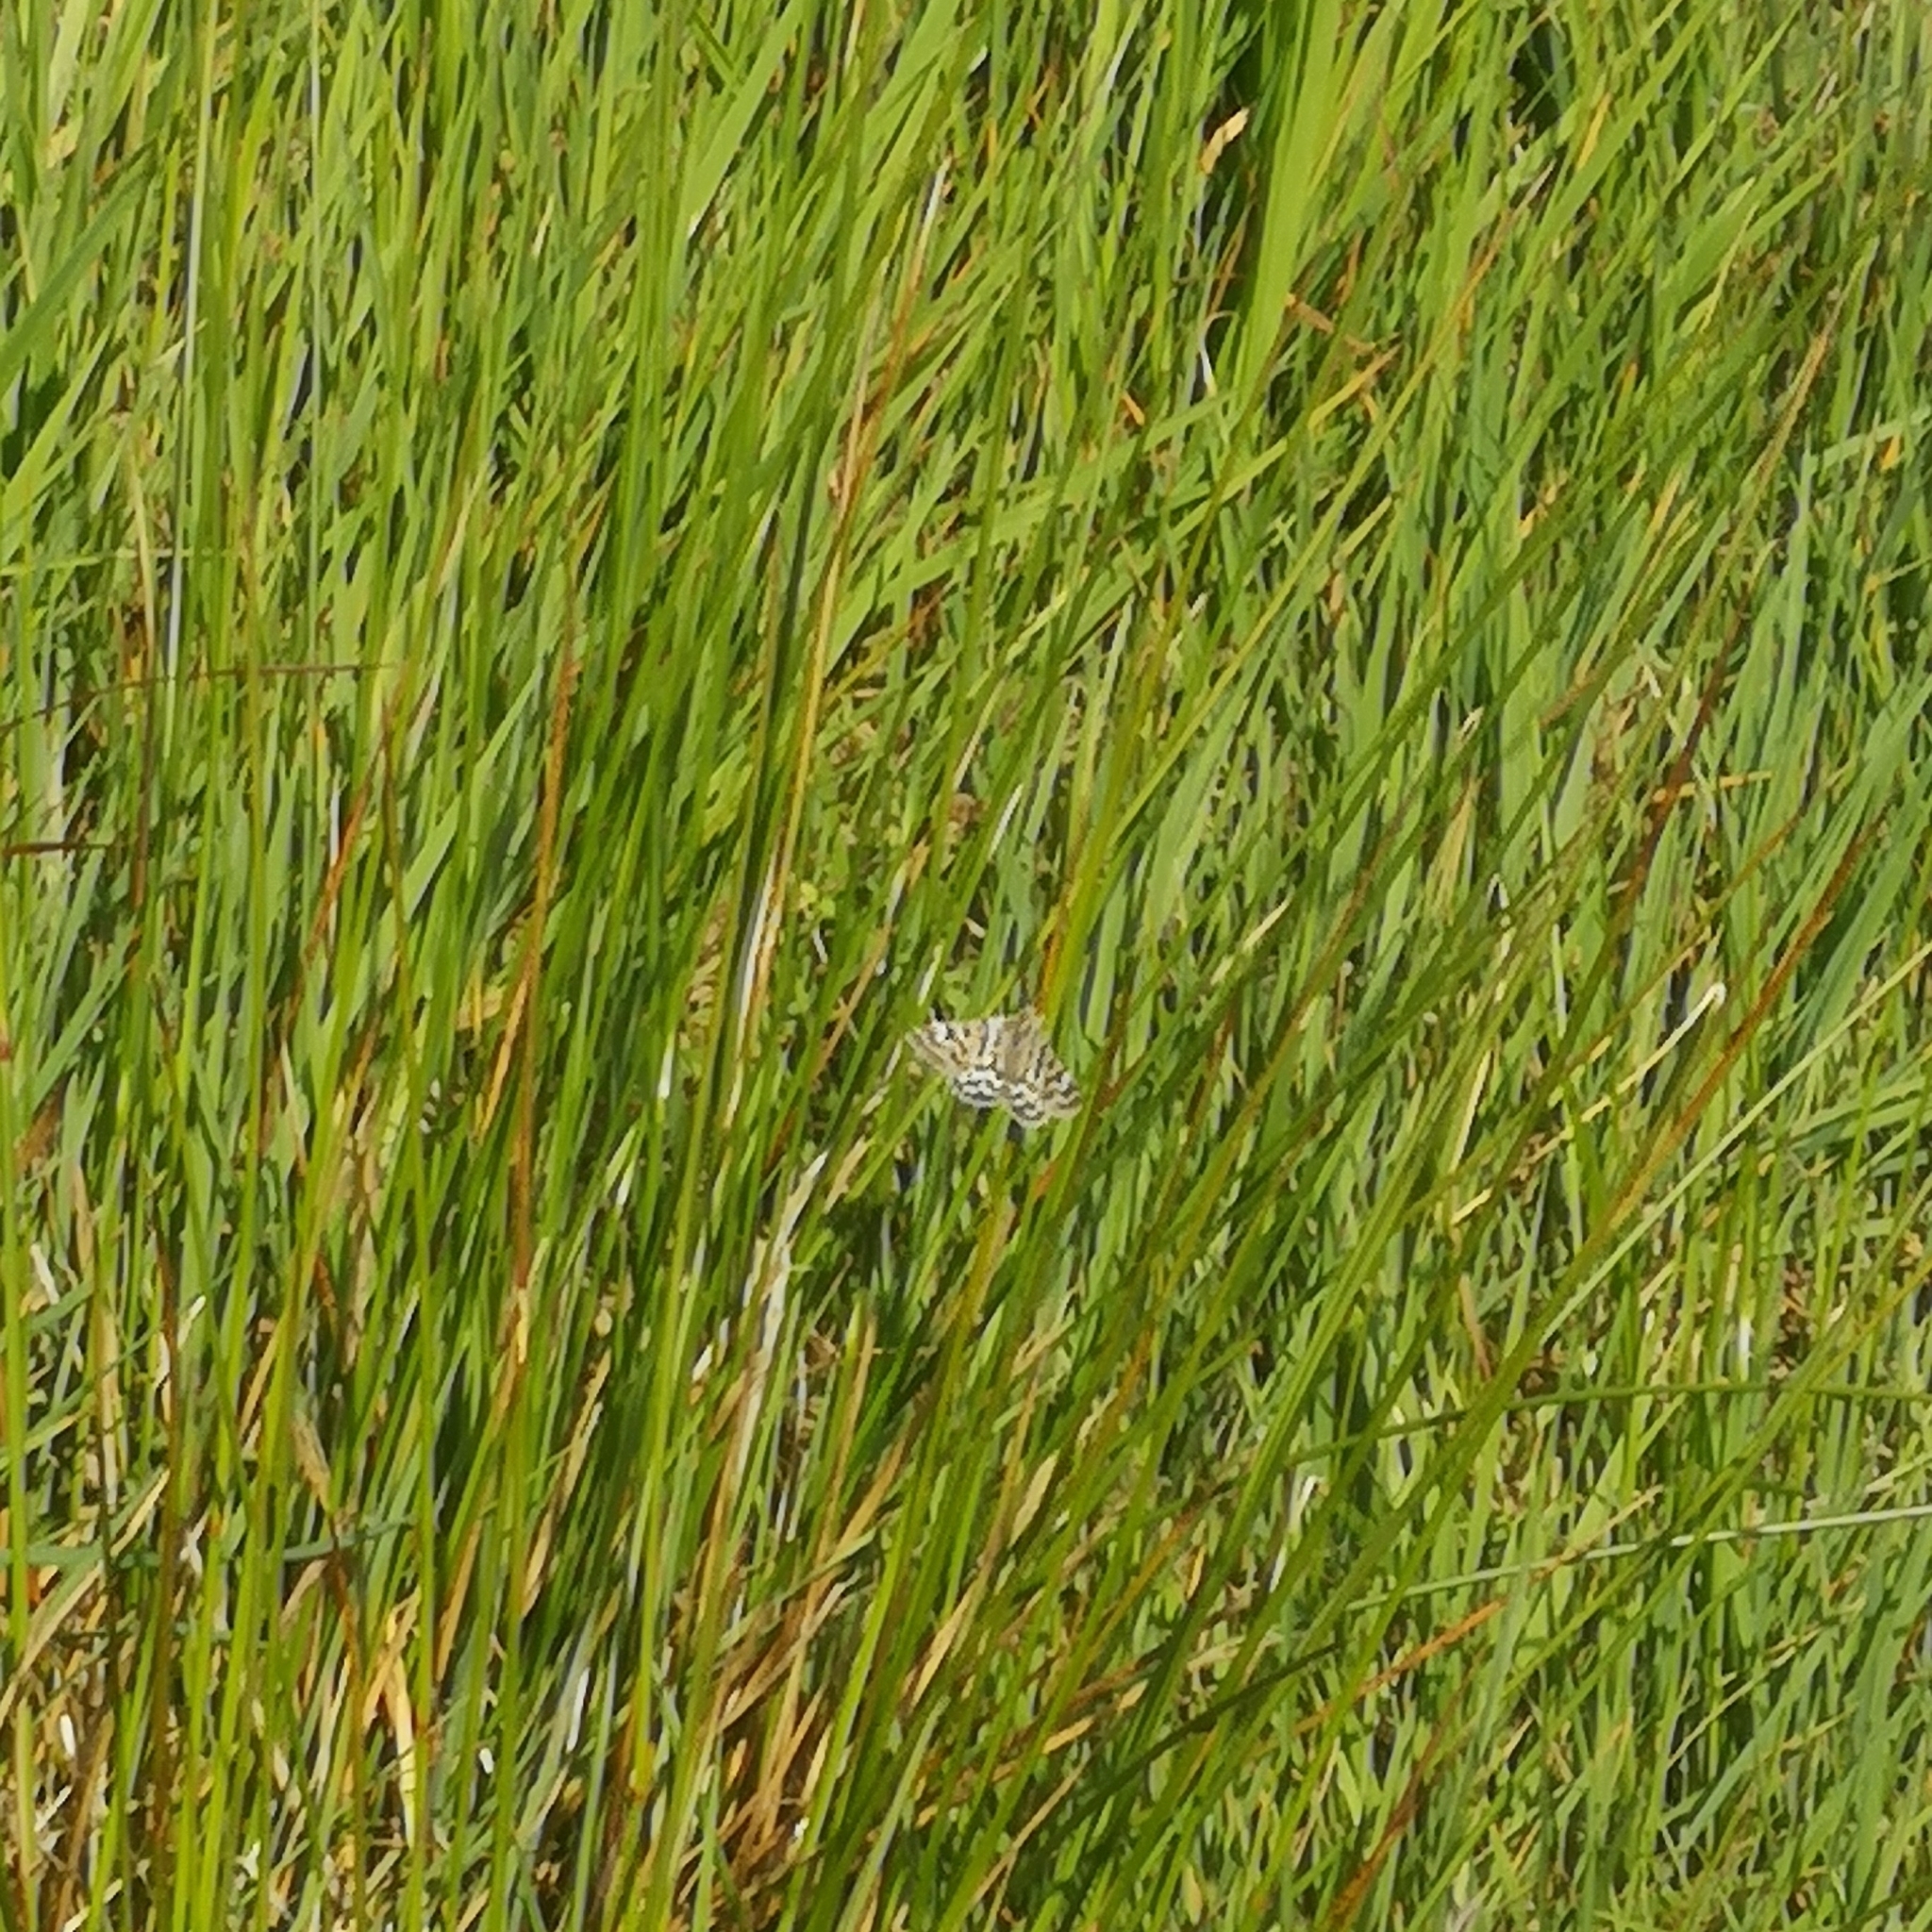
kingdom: Animalia
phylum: Arthropoda
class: Insecta
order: Lepidoptera
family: Erebidae
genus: Callistege
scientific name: Callistege mi
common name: Mother shipton
